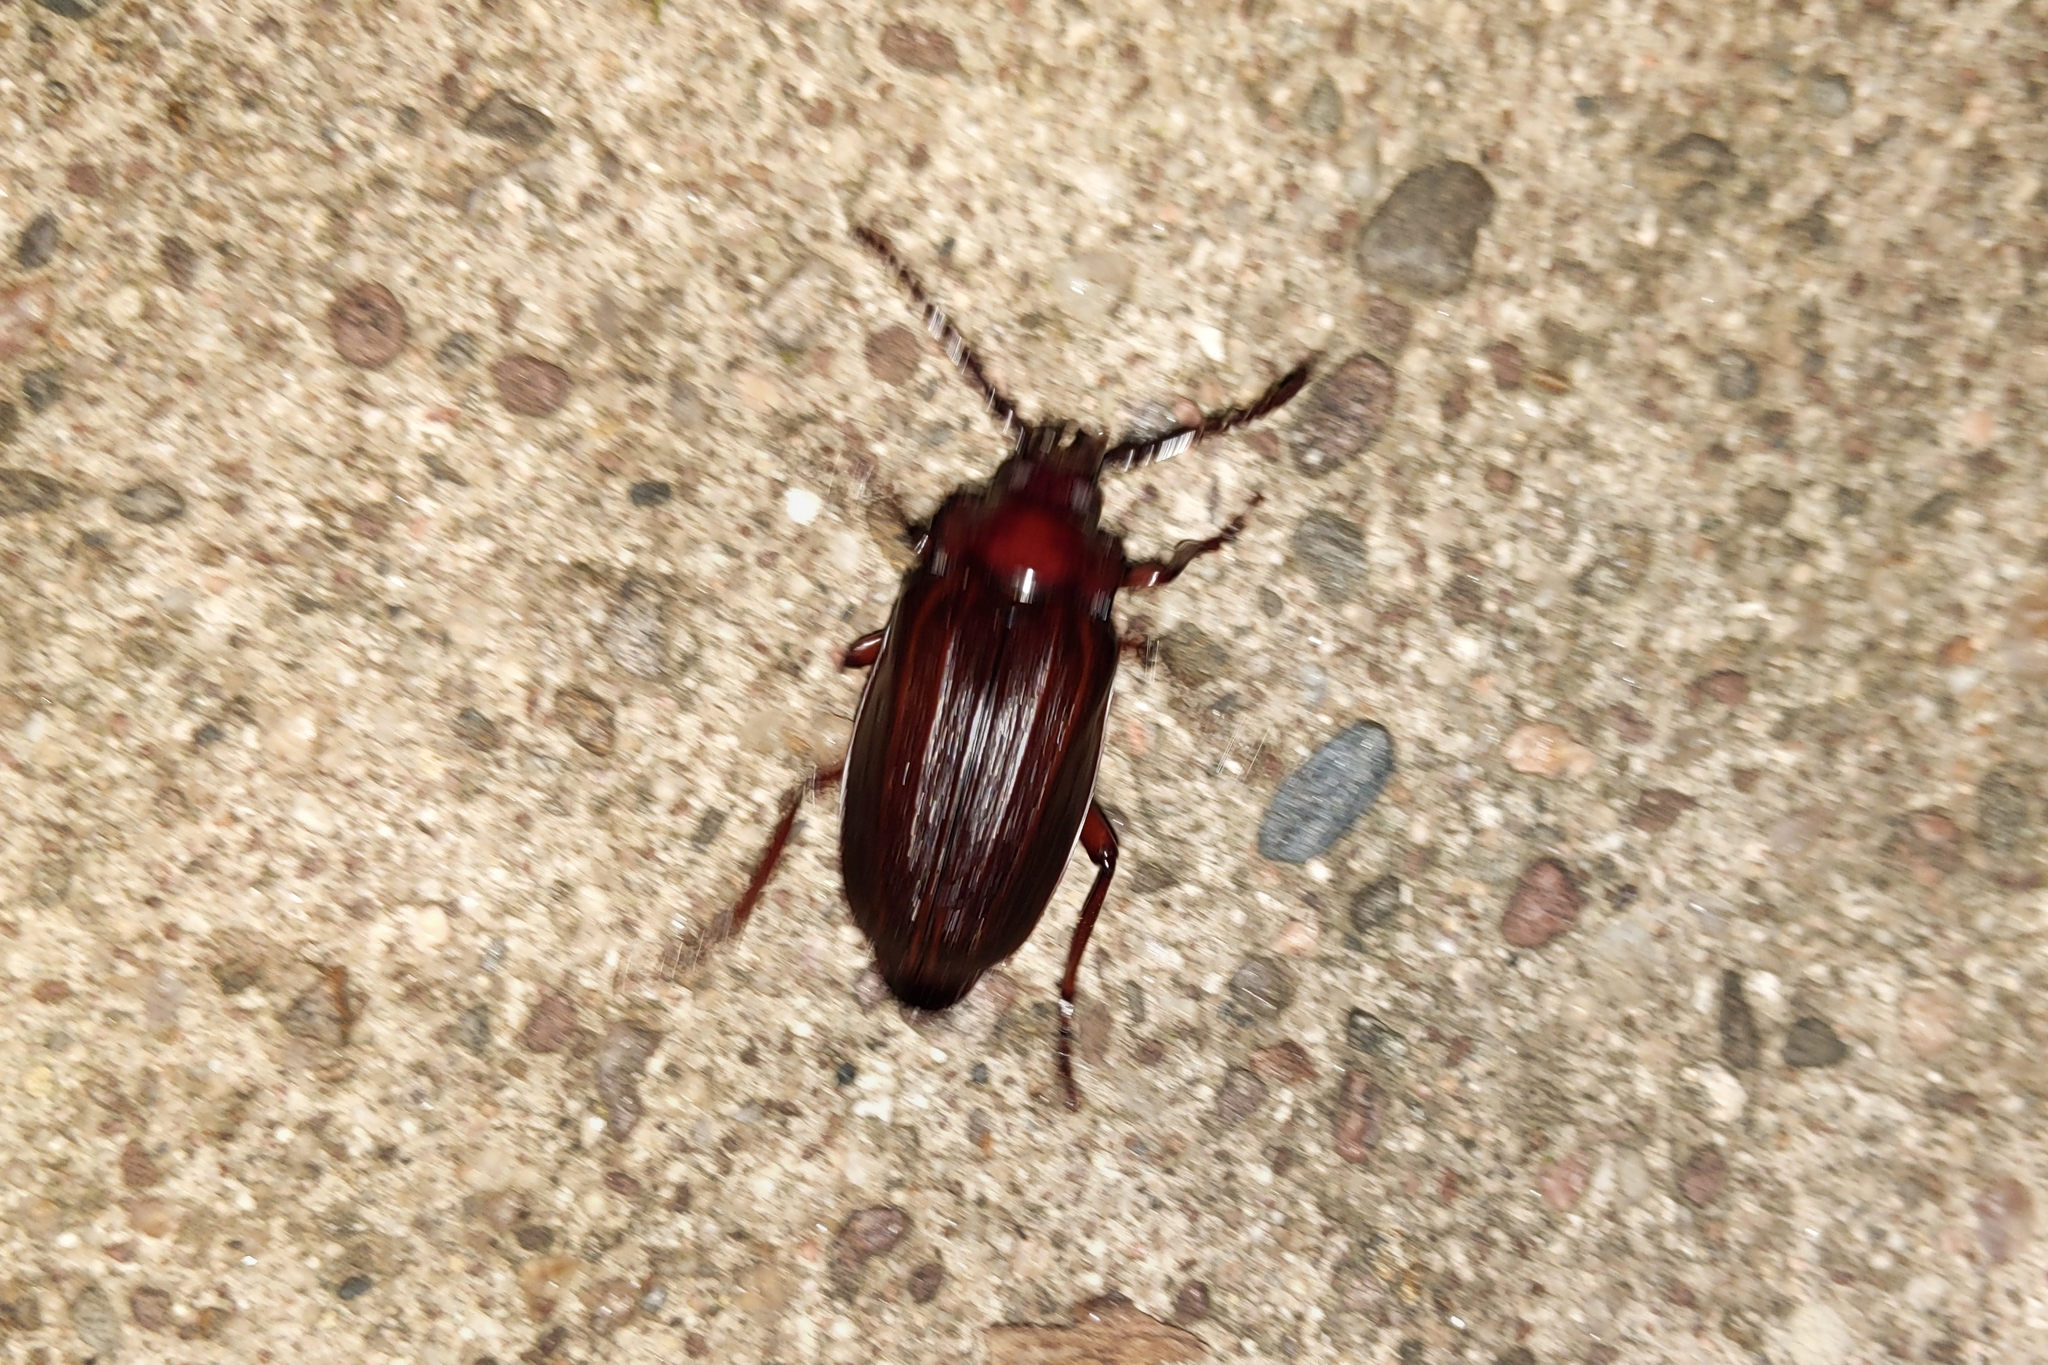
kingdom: Animalia
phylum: Arthropoda
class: Insecta
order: Coleoptera
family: Cerambycidae
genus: Prionus
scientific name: Prionus laticollis
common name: Broad necked prionus
